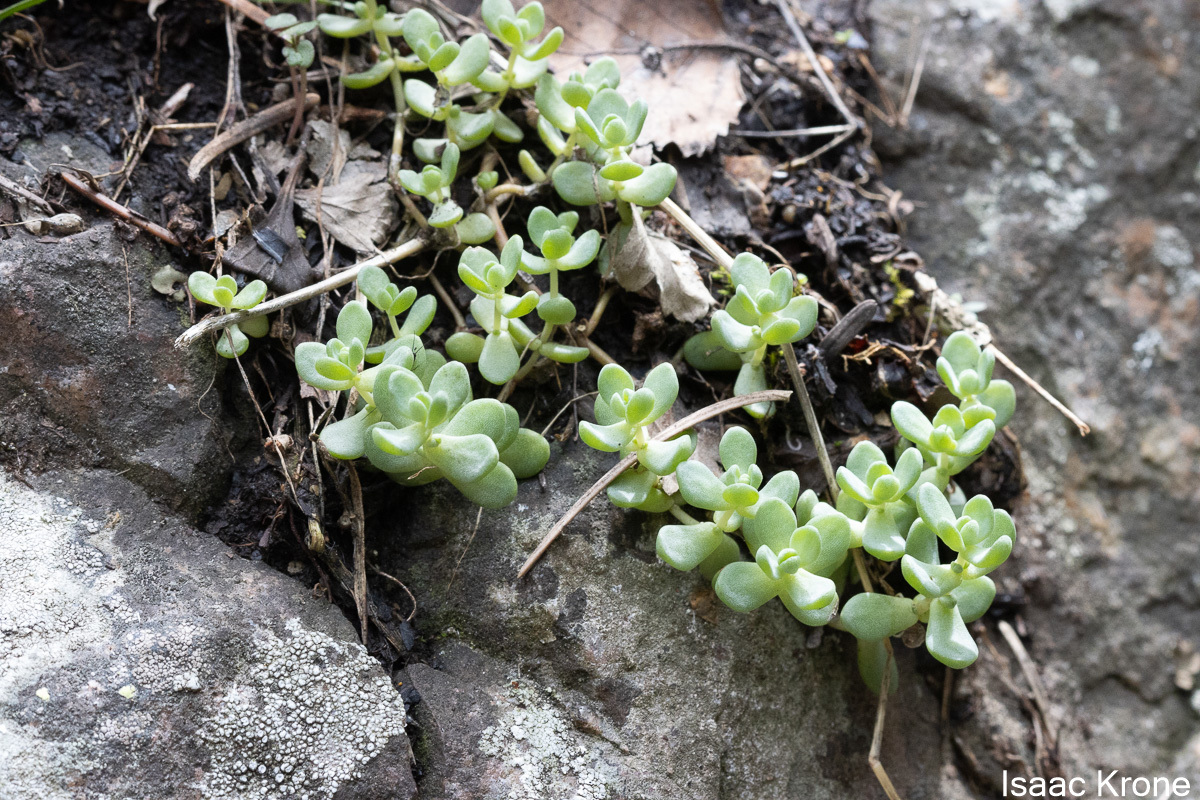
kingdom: Plantae
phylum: Tracheophyta
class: Magnoliopsida
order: Saxifragales
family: Crassulaceae
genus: Sedum
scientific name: Sedum debile
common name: Weak-stem stonecrop
